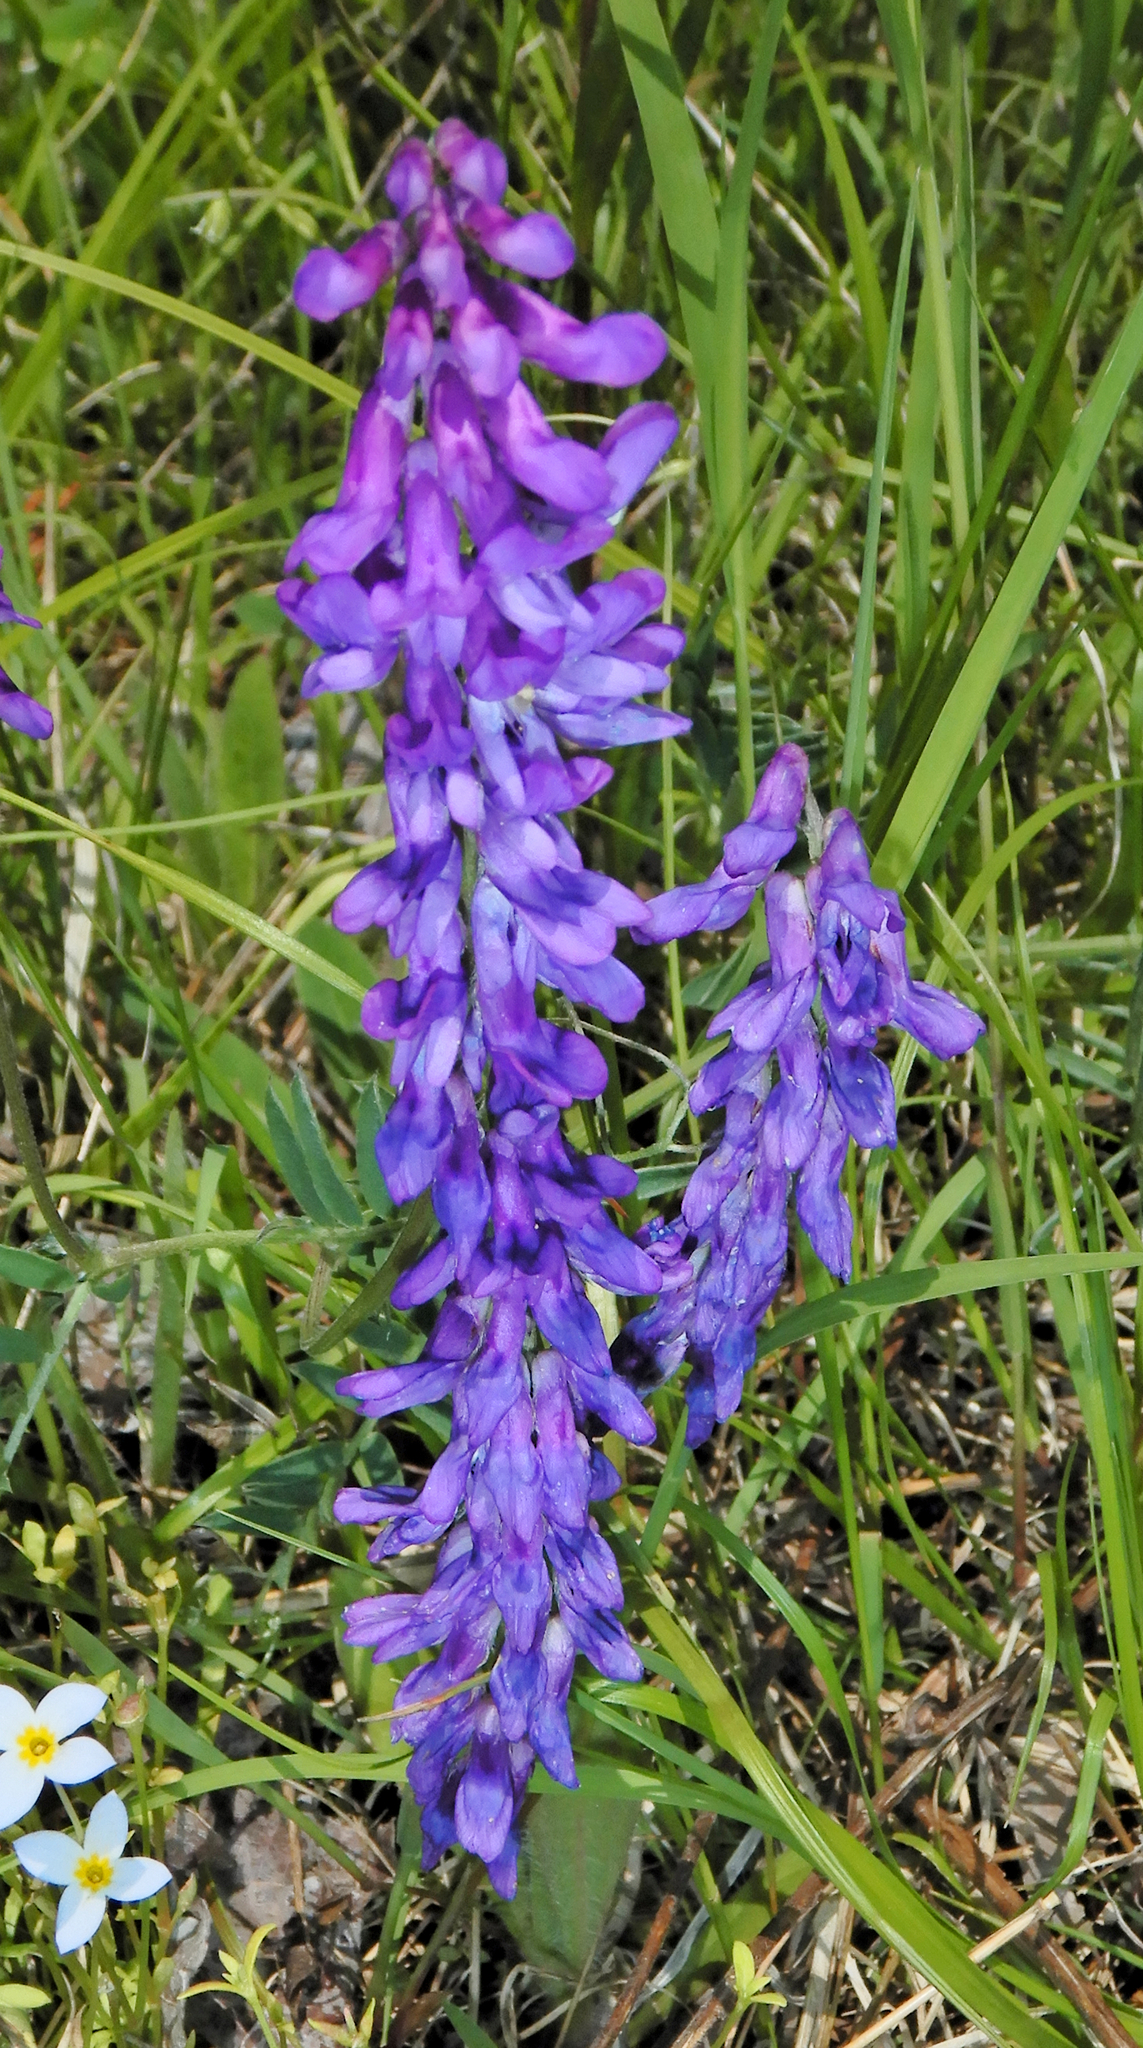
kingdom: Plantae
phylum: Tracheophyta
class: Magnoliopsida
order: Fabales
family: Fabaceae
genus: Vicia
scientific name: Vicia cracca
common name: Bird vetch
